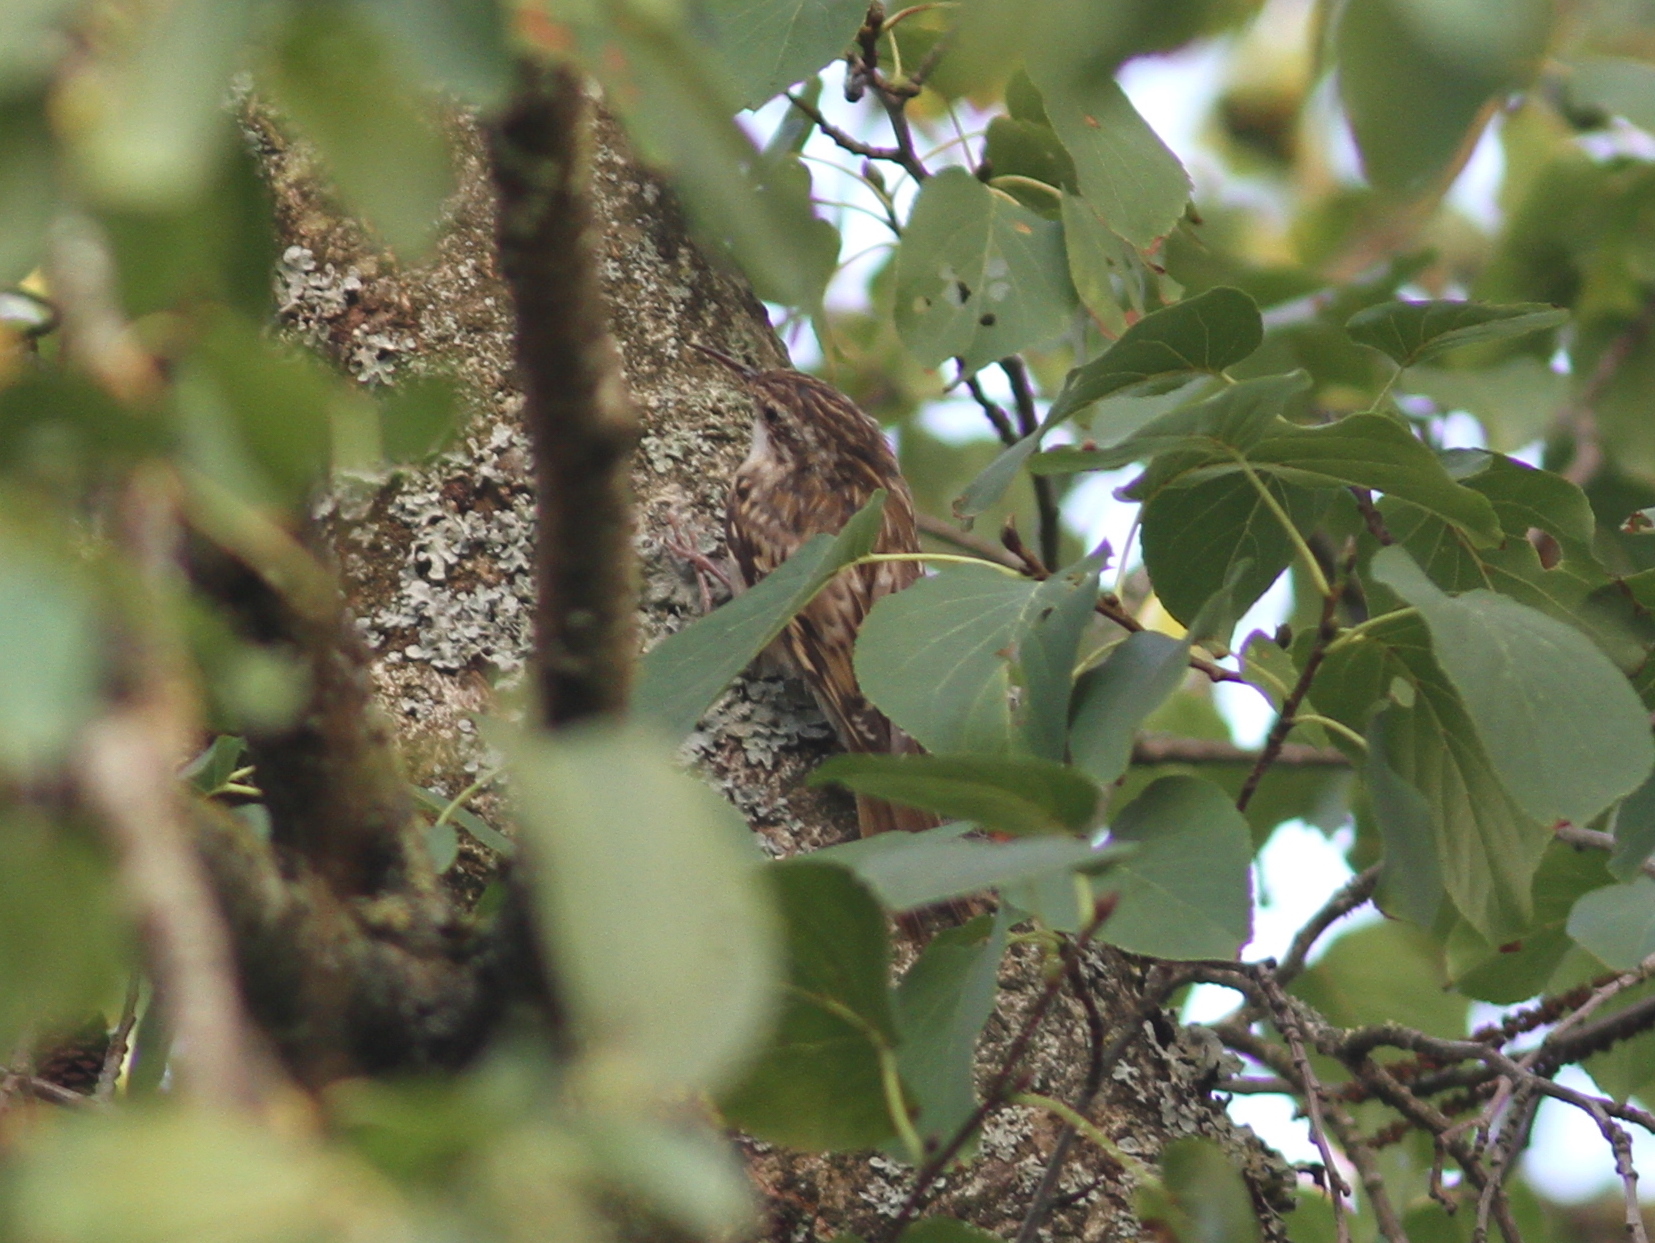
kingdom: Animalia
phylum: Chordata
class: Aves
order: Passeriformes
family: Certhiidae
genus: Certhia
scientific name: Certhia brachydactyla
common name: Short-toed treecreeper
